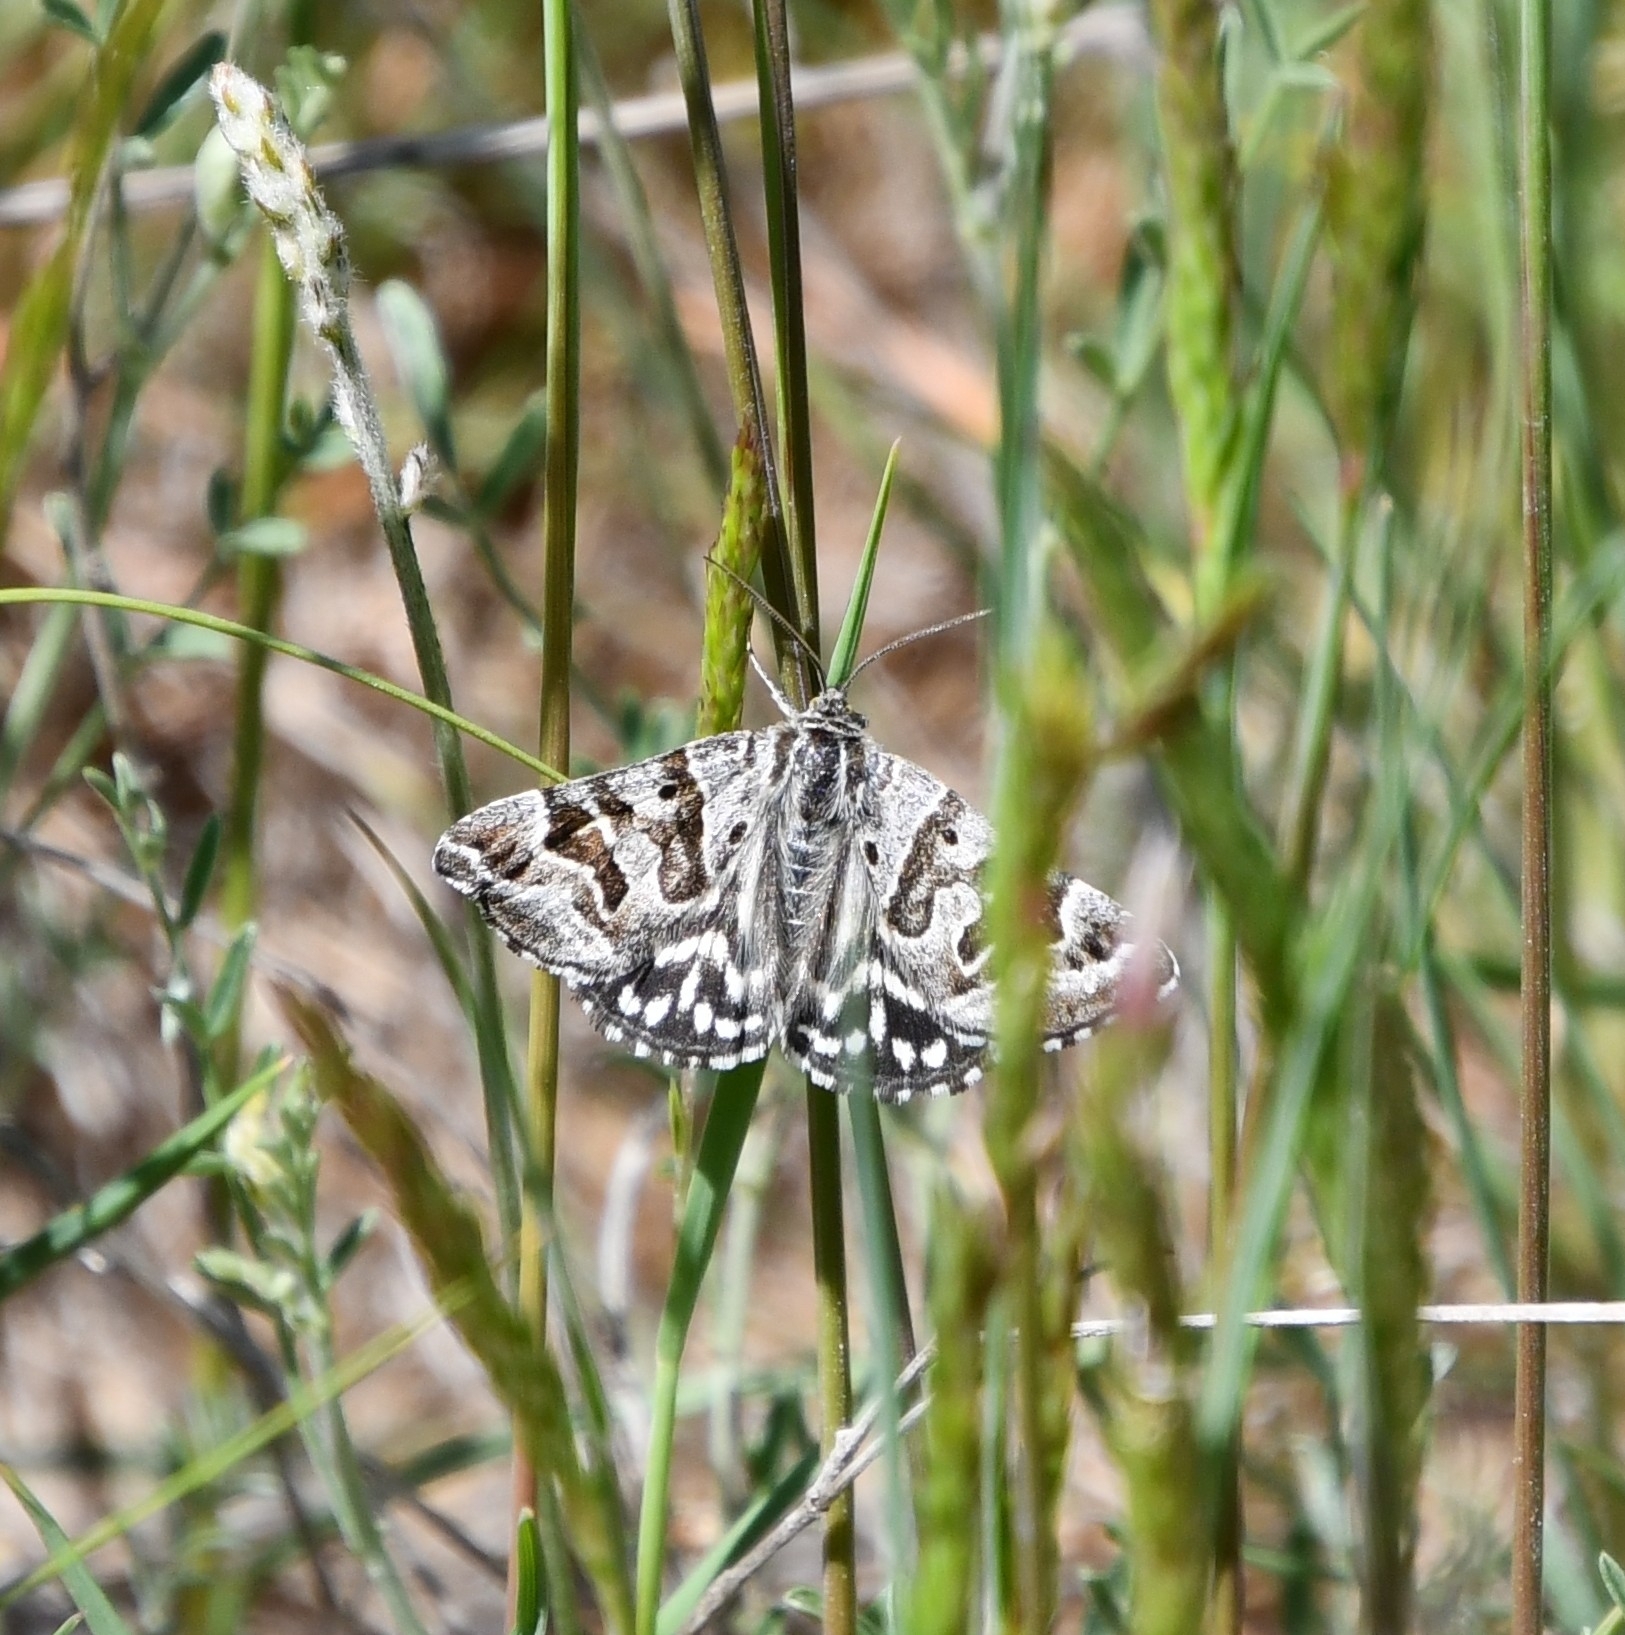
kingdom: Animalia
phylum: Arthropoda
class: Insecta
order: Lepidoptera
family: Erebidae
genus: Callistege
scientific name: Callistege mi
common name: Mother shipton
